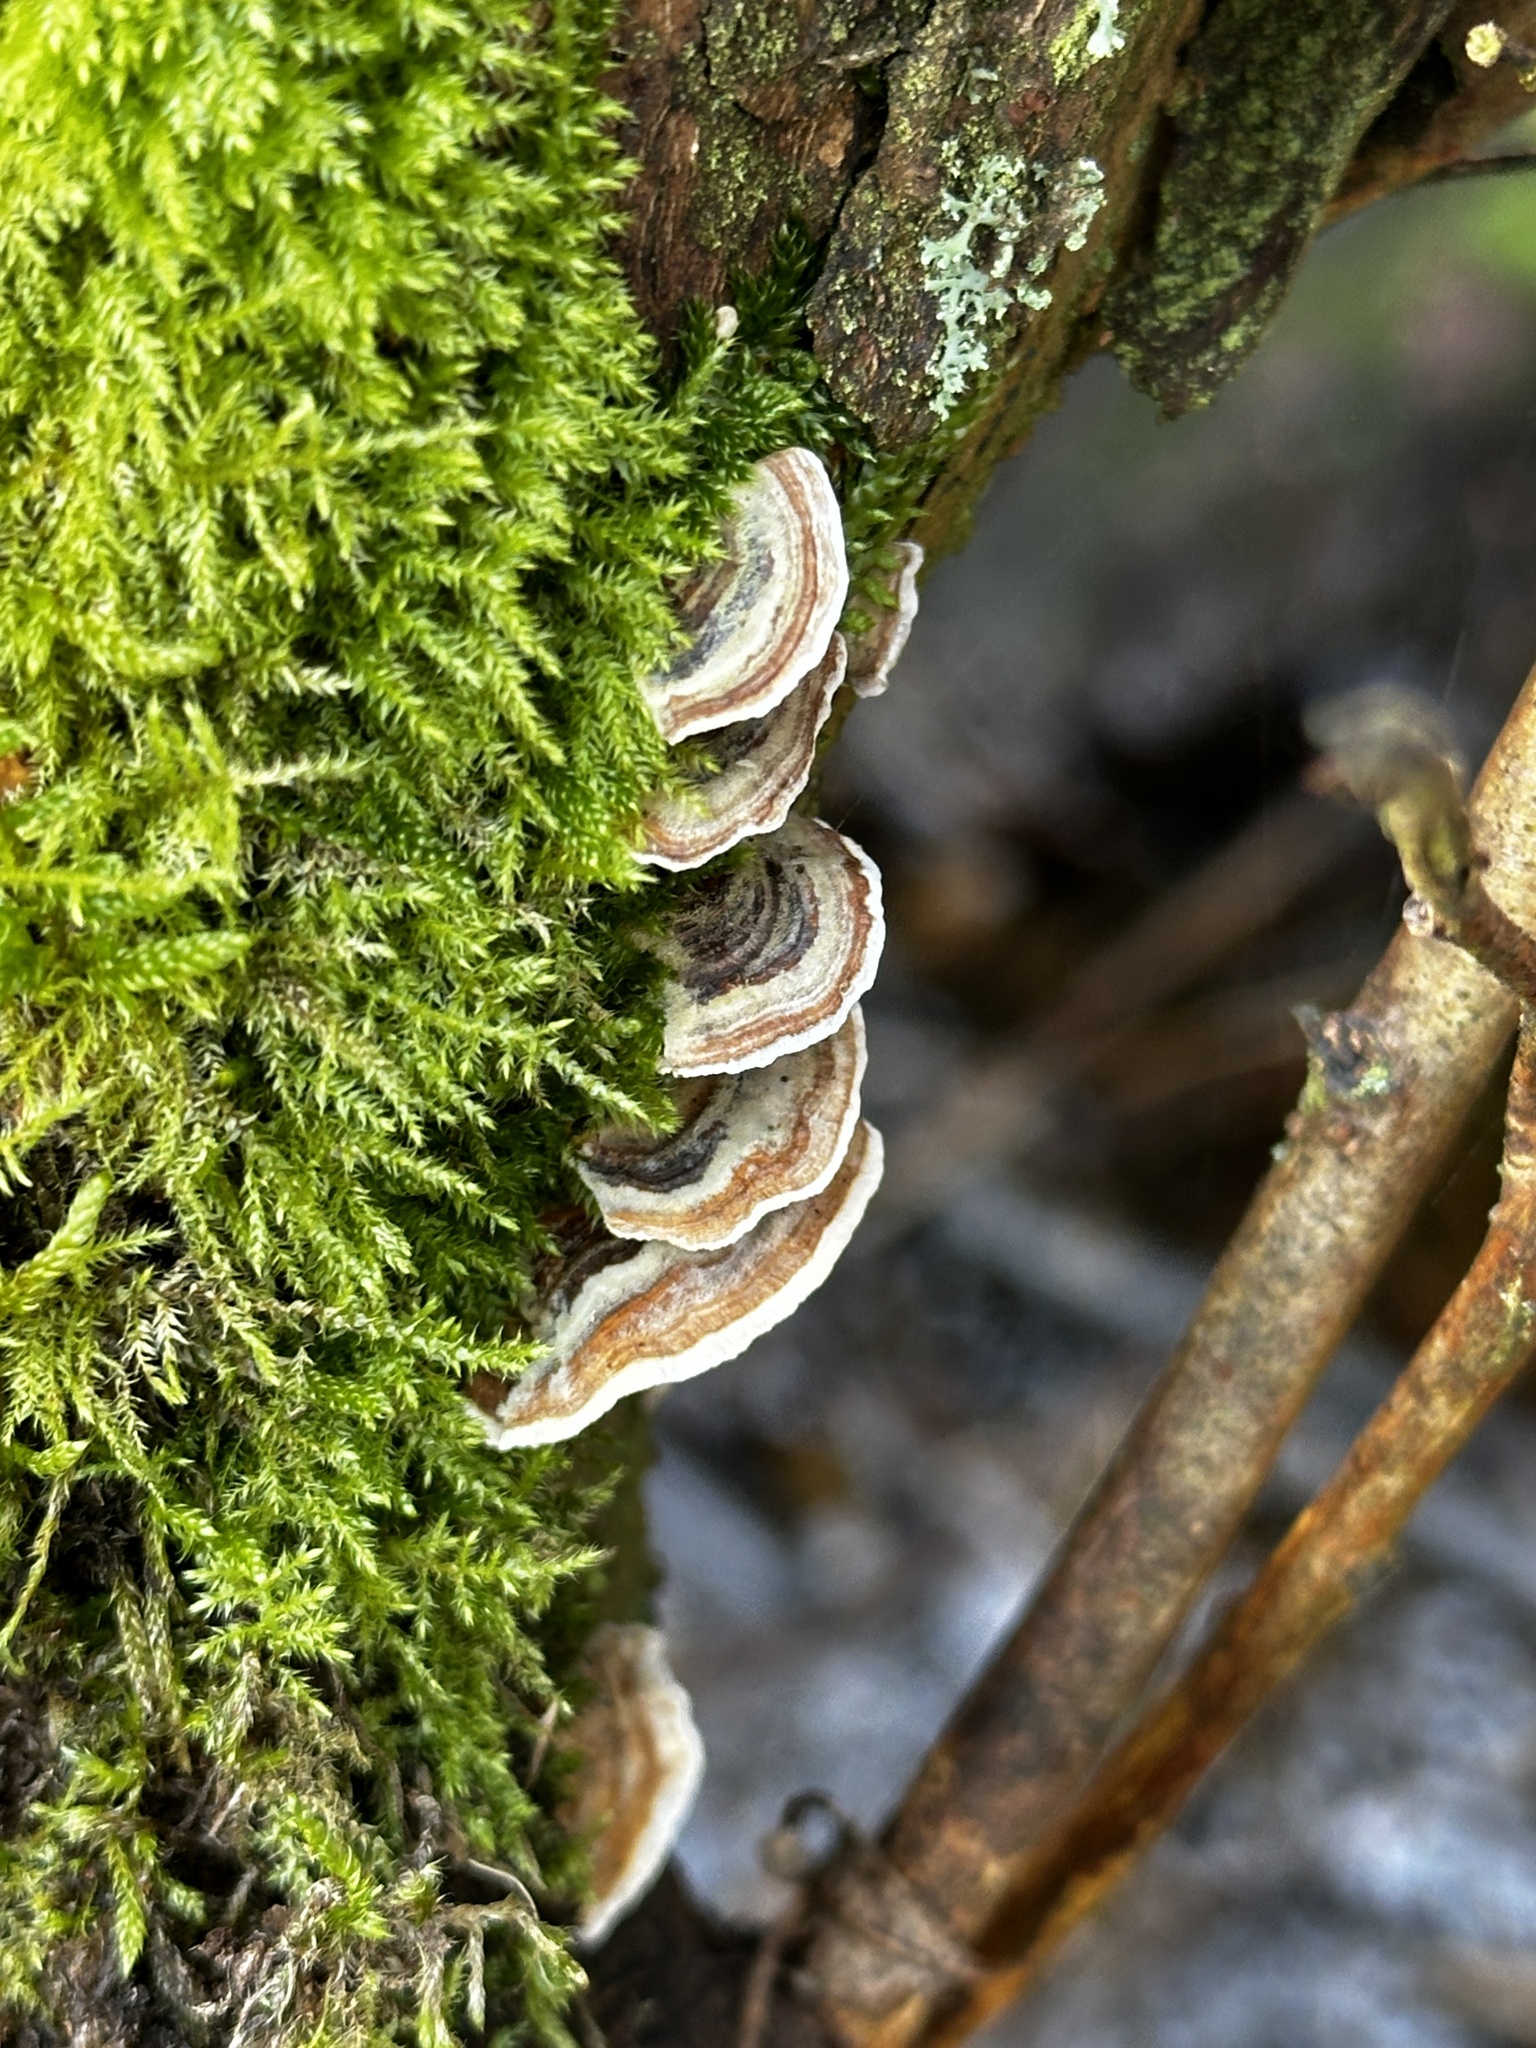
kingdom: Fungi
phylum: Basidiomycota
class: Agaricomycetes
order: Polyporales
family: Polyporaceae
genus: Trametes
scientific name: Trametes versicolor
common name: Turkeytail
